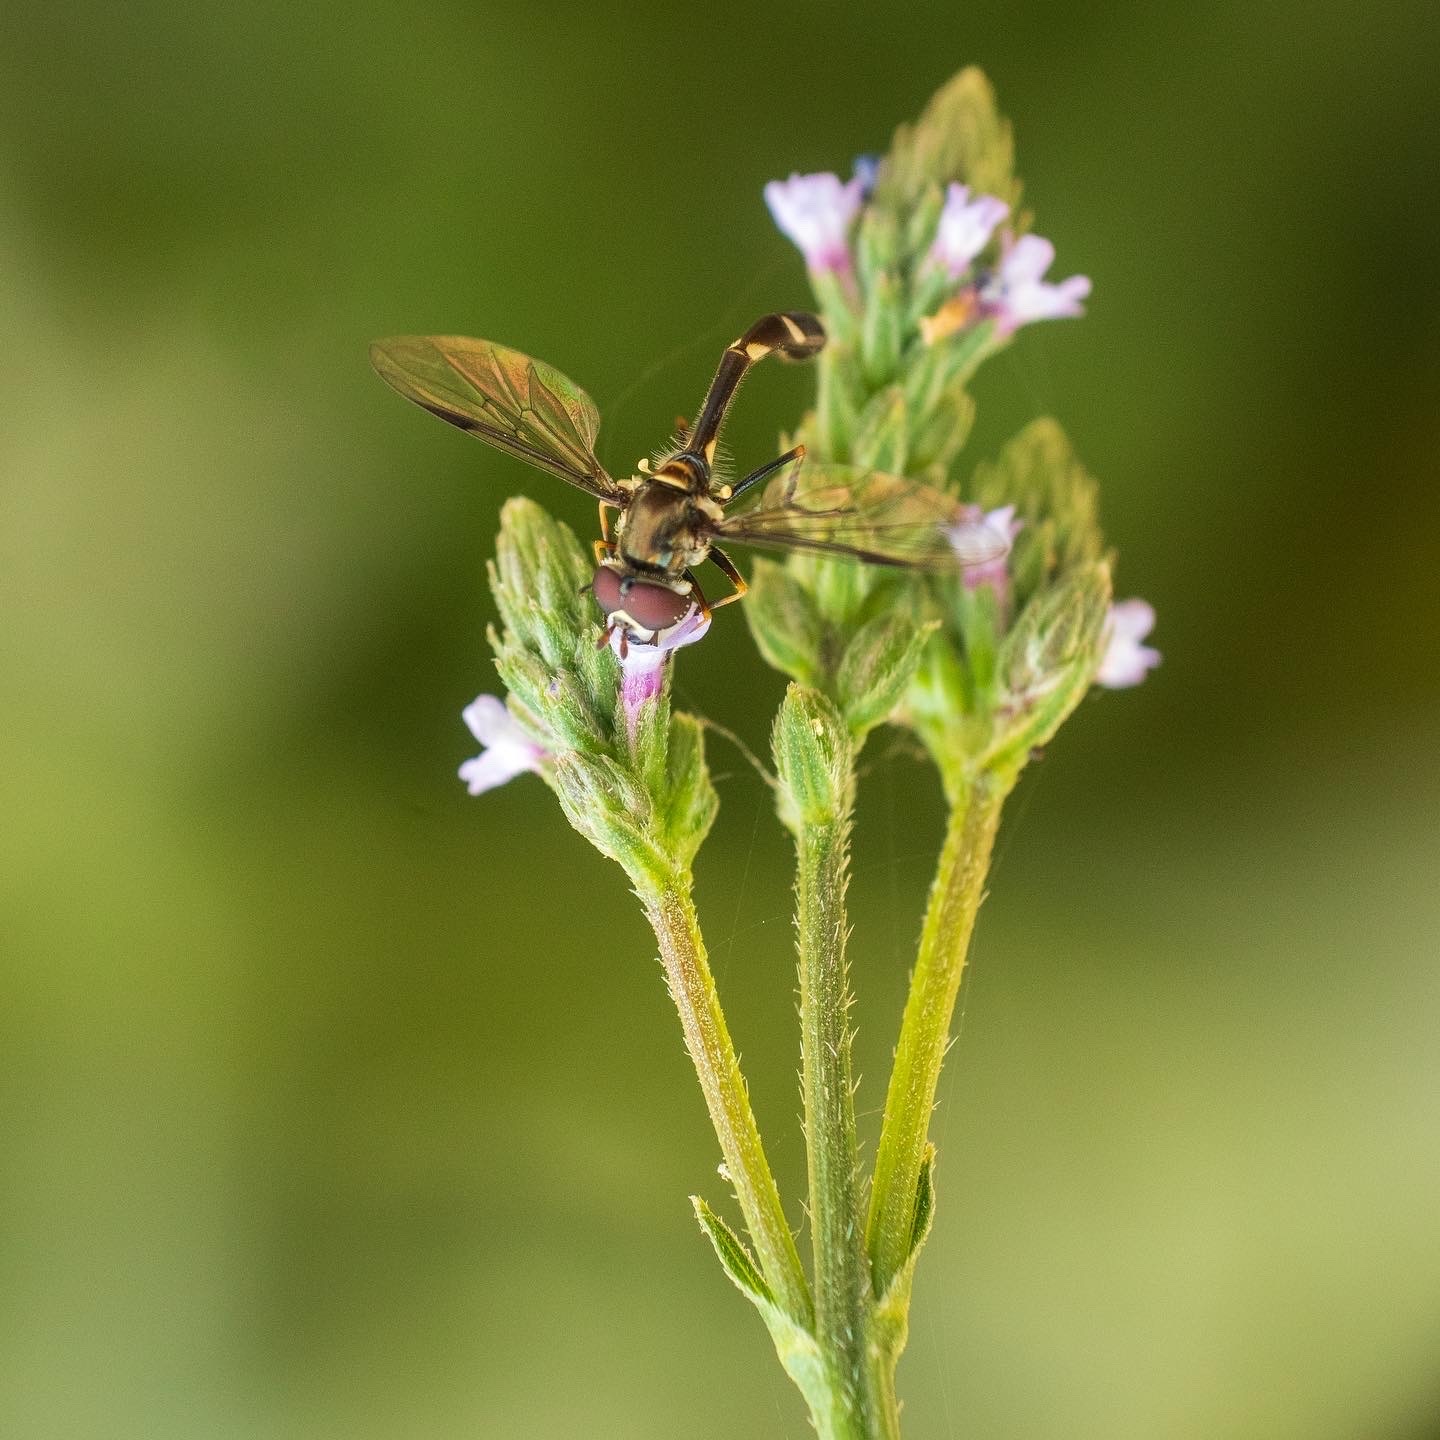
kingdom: Animalia
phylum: Arthropoda
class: Insecta
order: Diptera
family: Syrphidae
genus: Dioprosopa
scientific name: Dioprosopa clavatus
